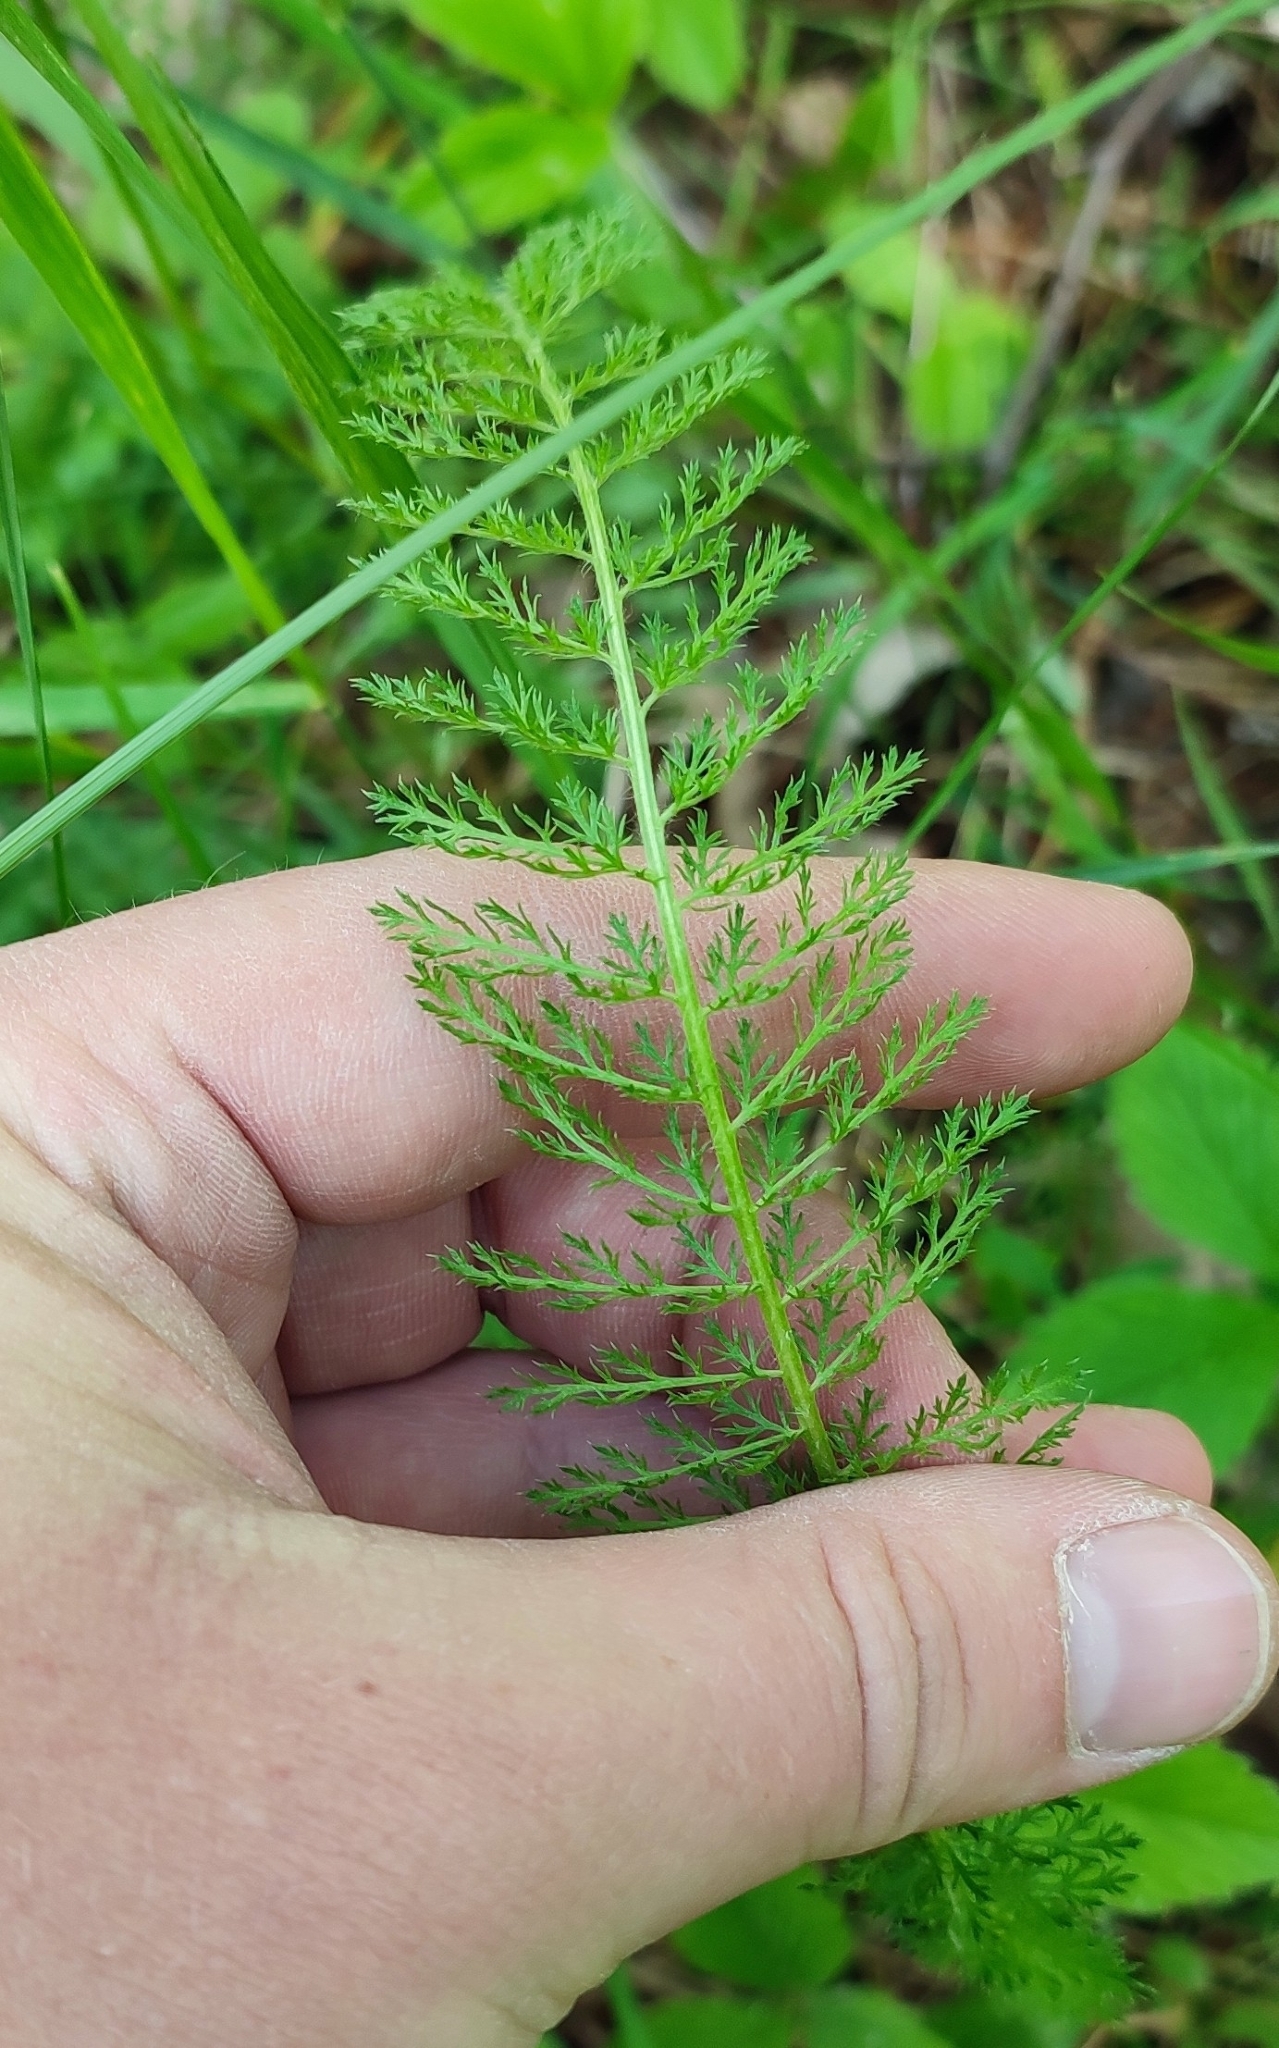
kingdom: Plantae
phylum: Tracheophyta
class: Magnoliopsida
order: Asterales
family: Asteraceae
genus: Achillea
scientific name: Achillea asiatica
